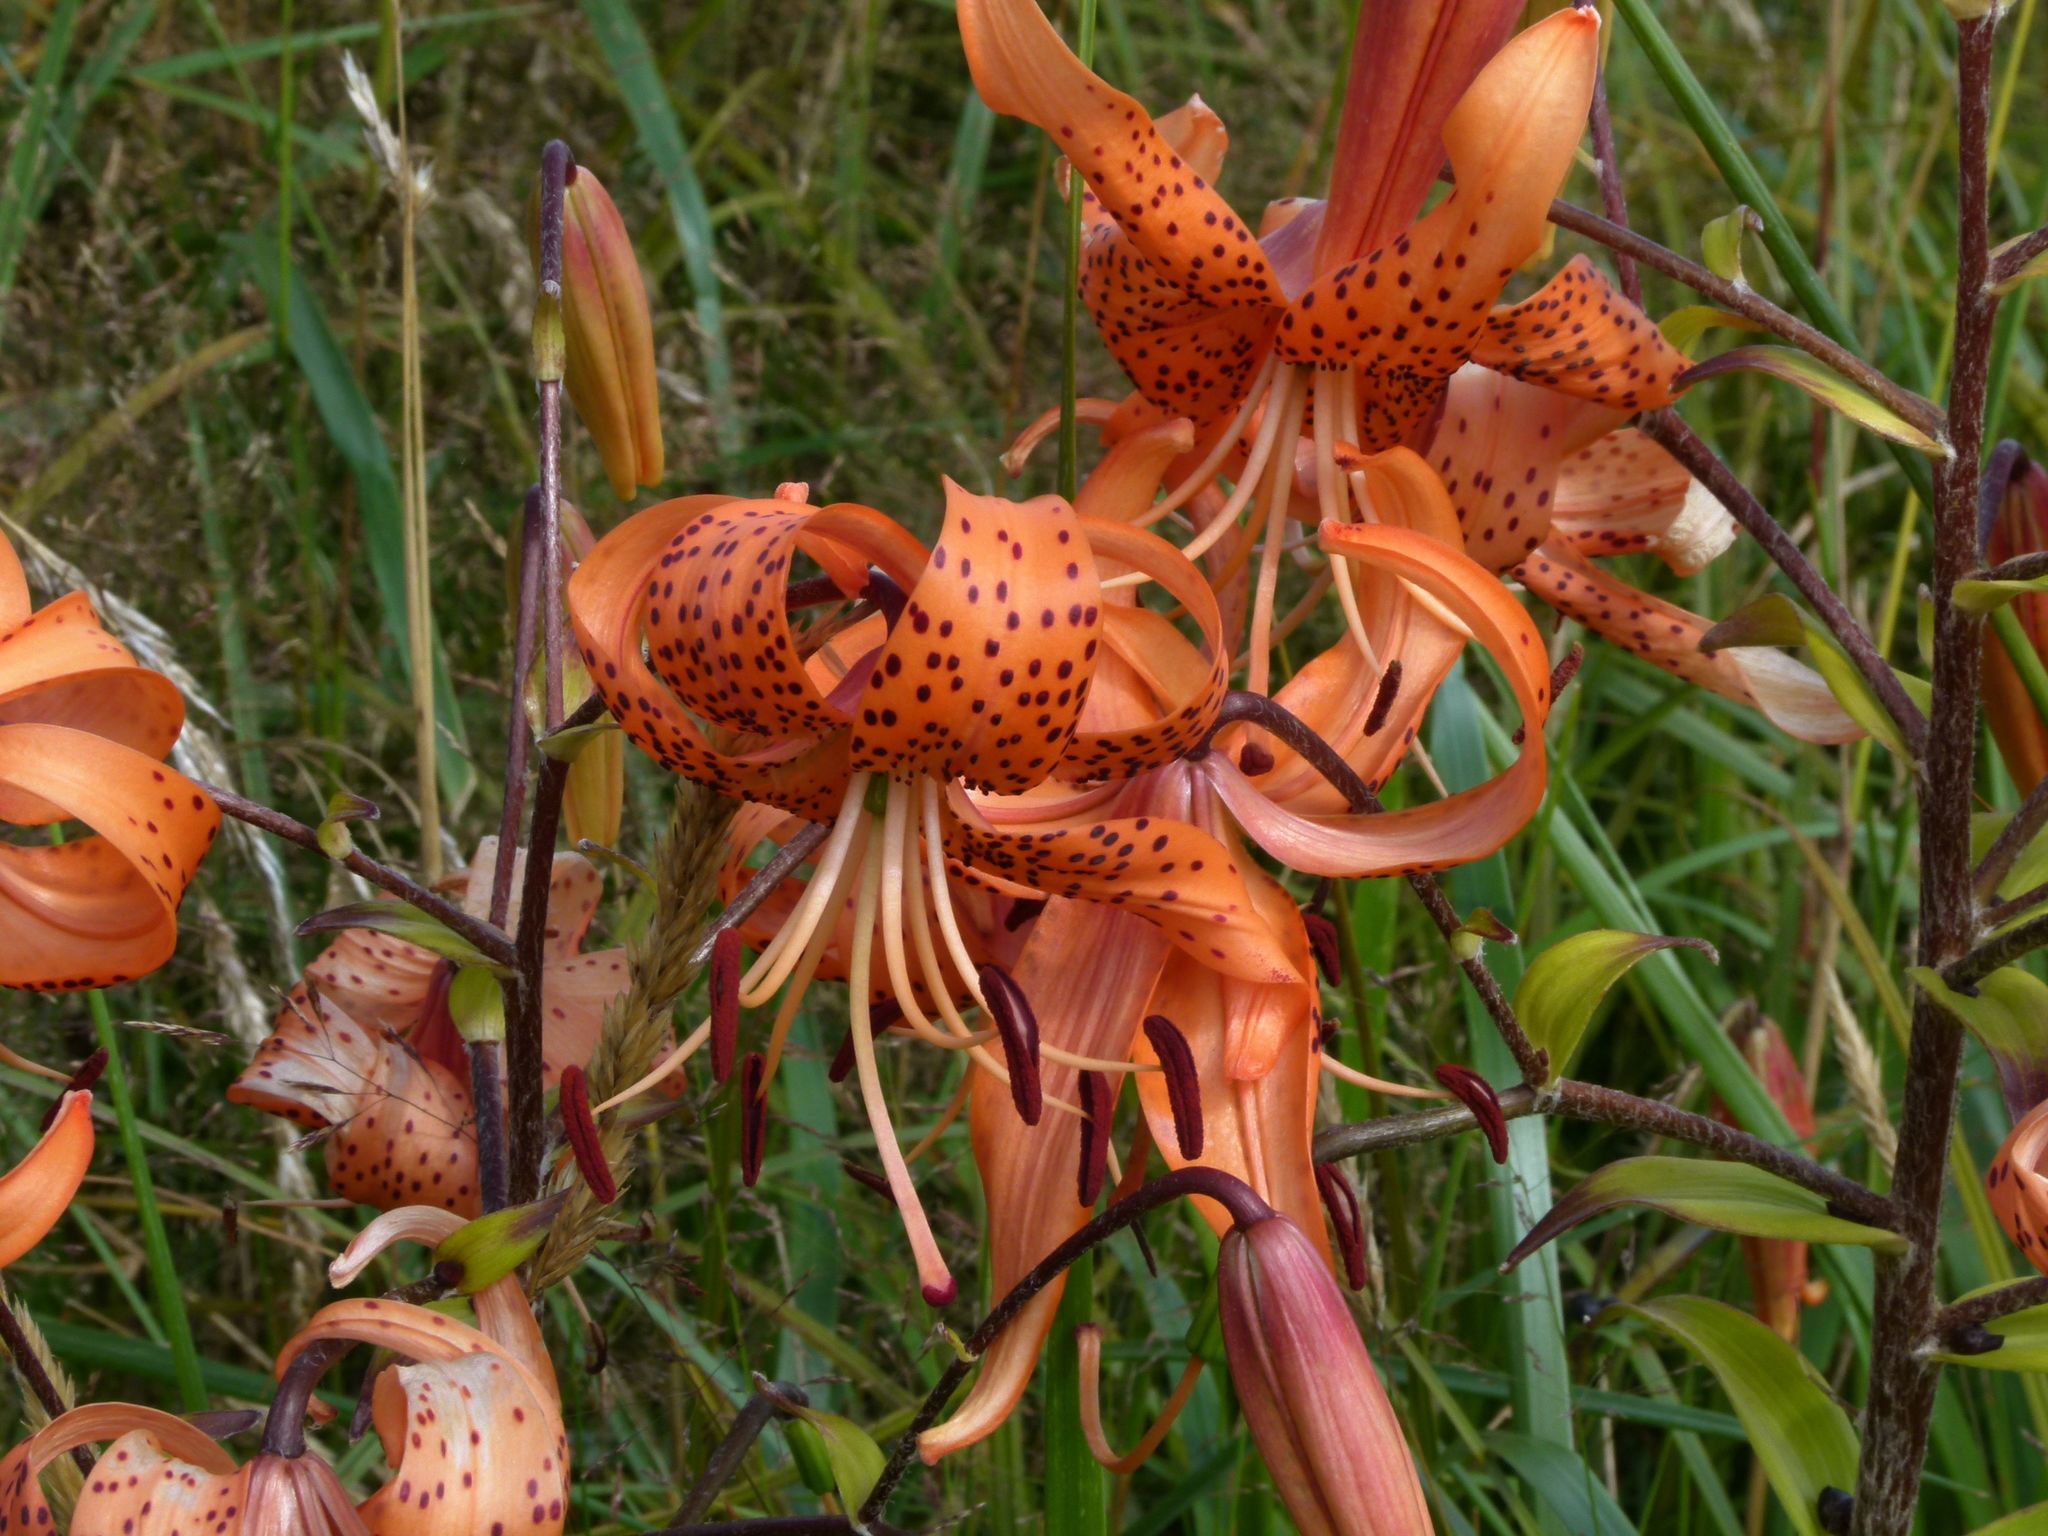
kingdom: Plantae
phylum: Tracheophyta
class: Liliopsida
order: Liliales
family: Liliaceae
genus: Lilium
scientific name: Lilium lancifolium
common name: Tiger lily
